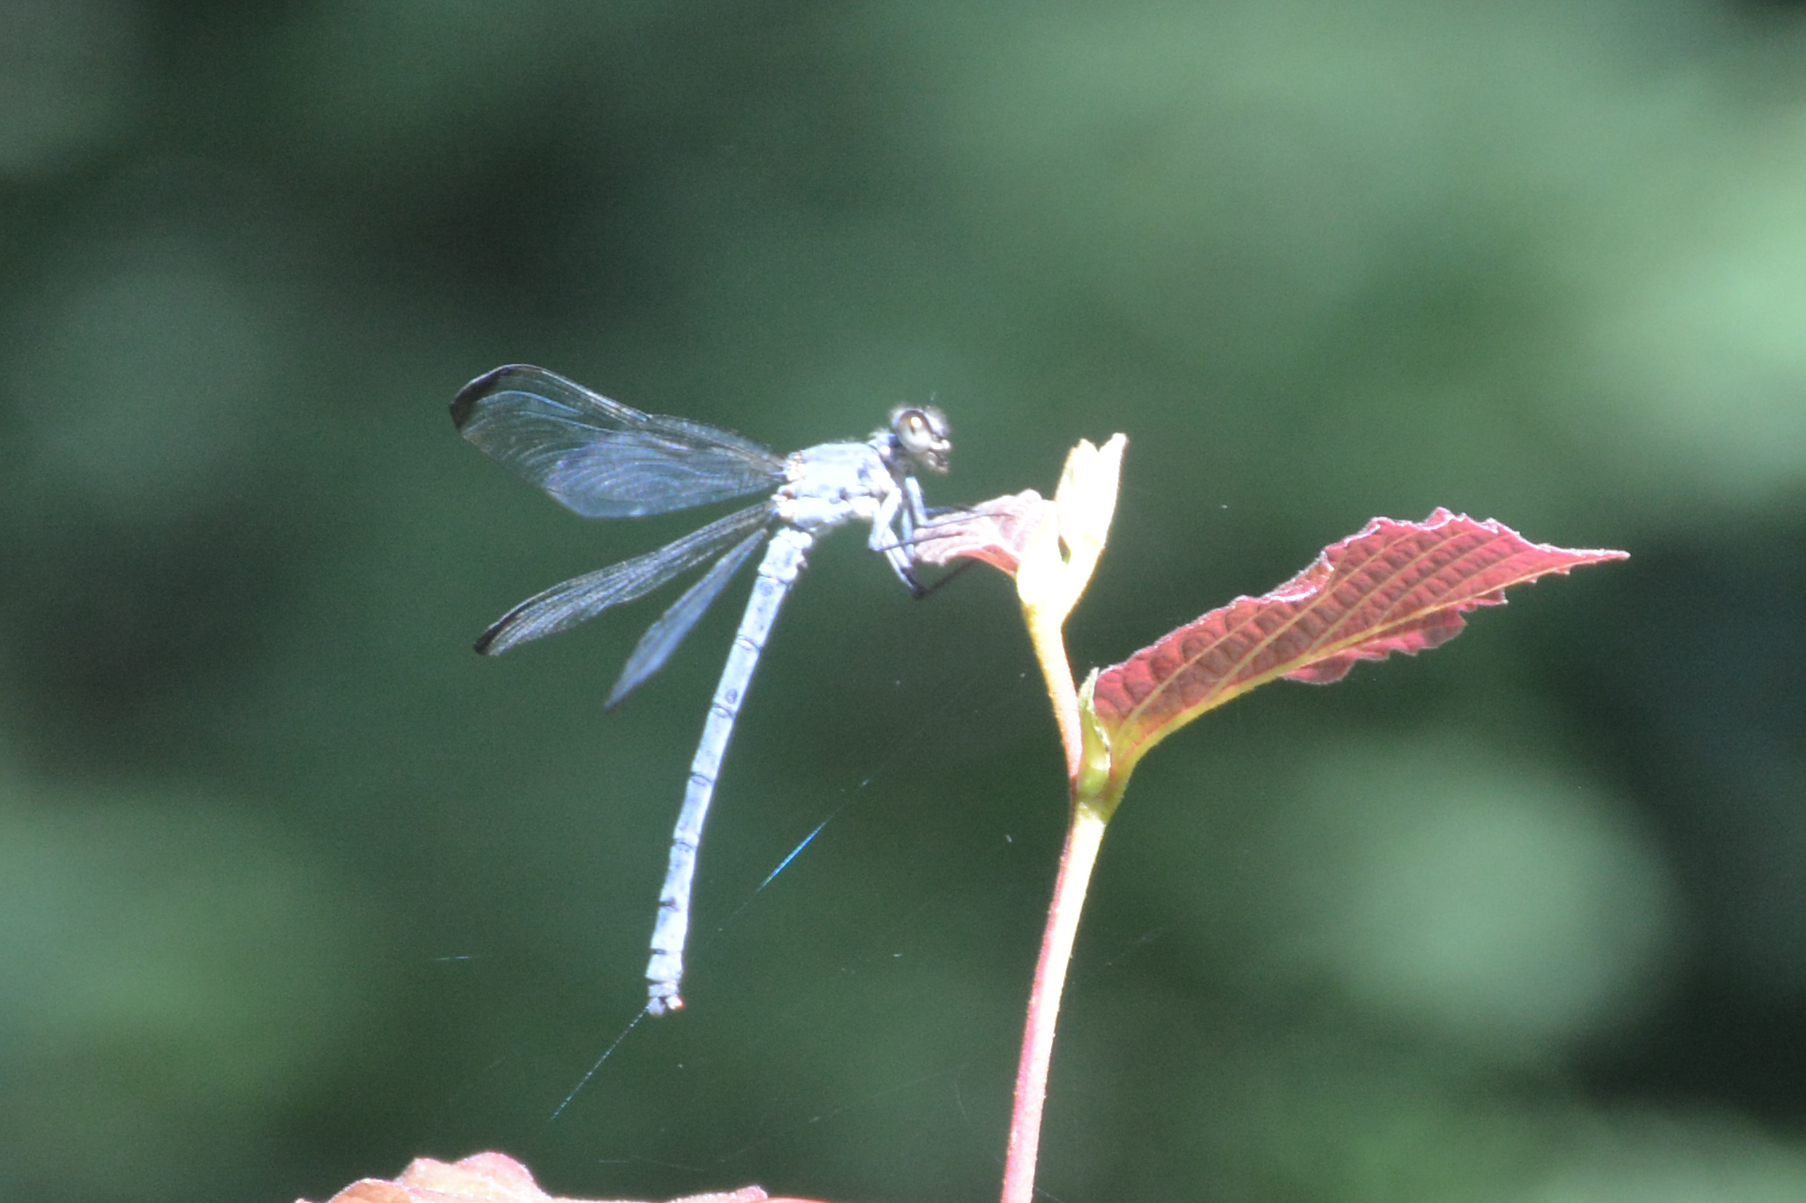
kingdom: Animalia
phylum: Arthropoda
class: Insecta
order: Odonata
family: Euphaeidae
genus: Epallage
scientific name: Epallage fatime
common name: Odalisque
